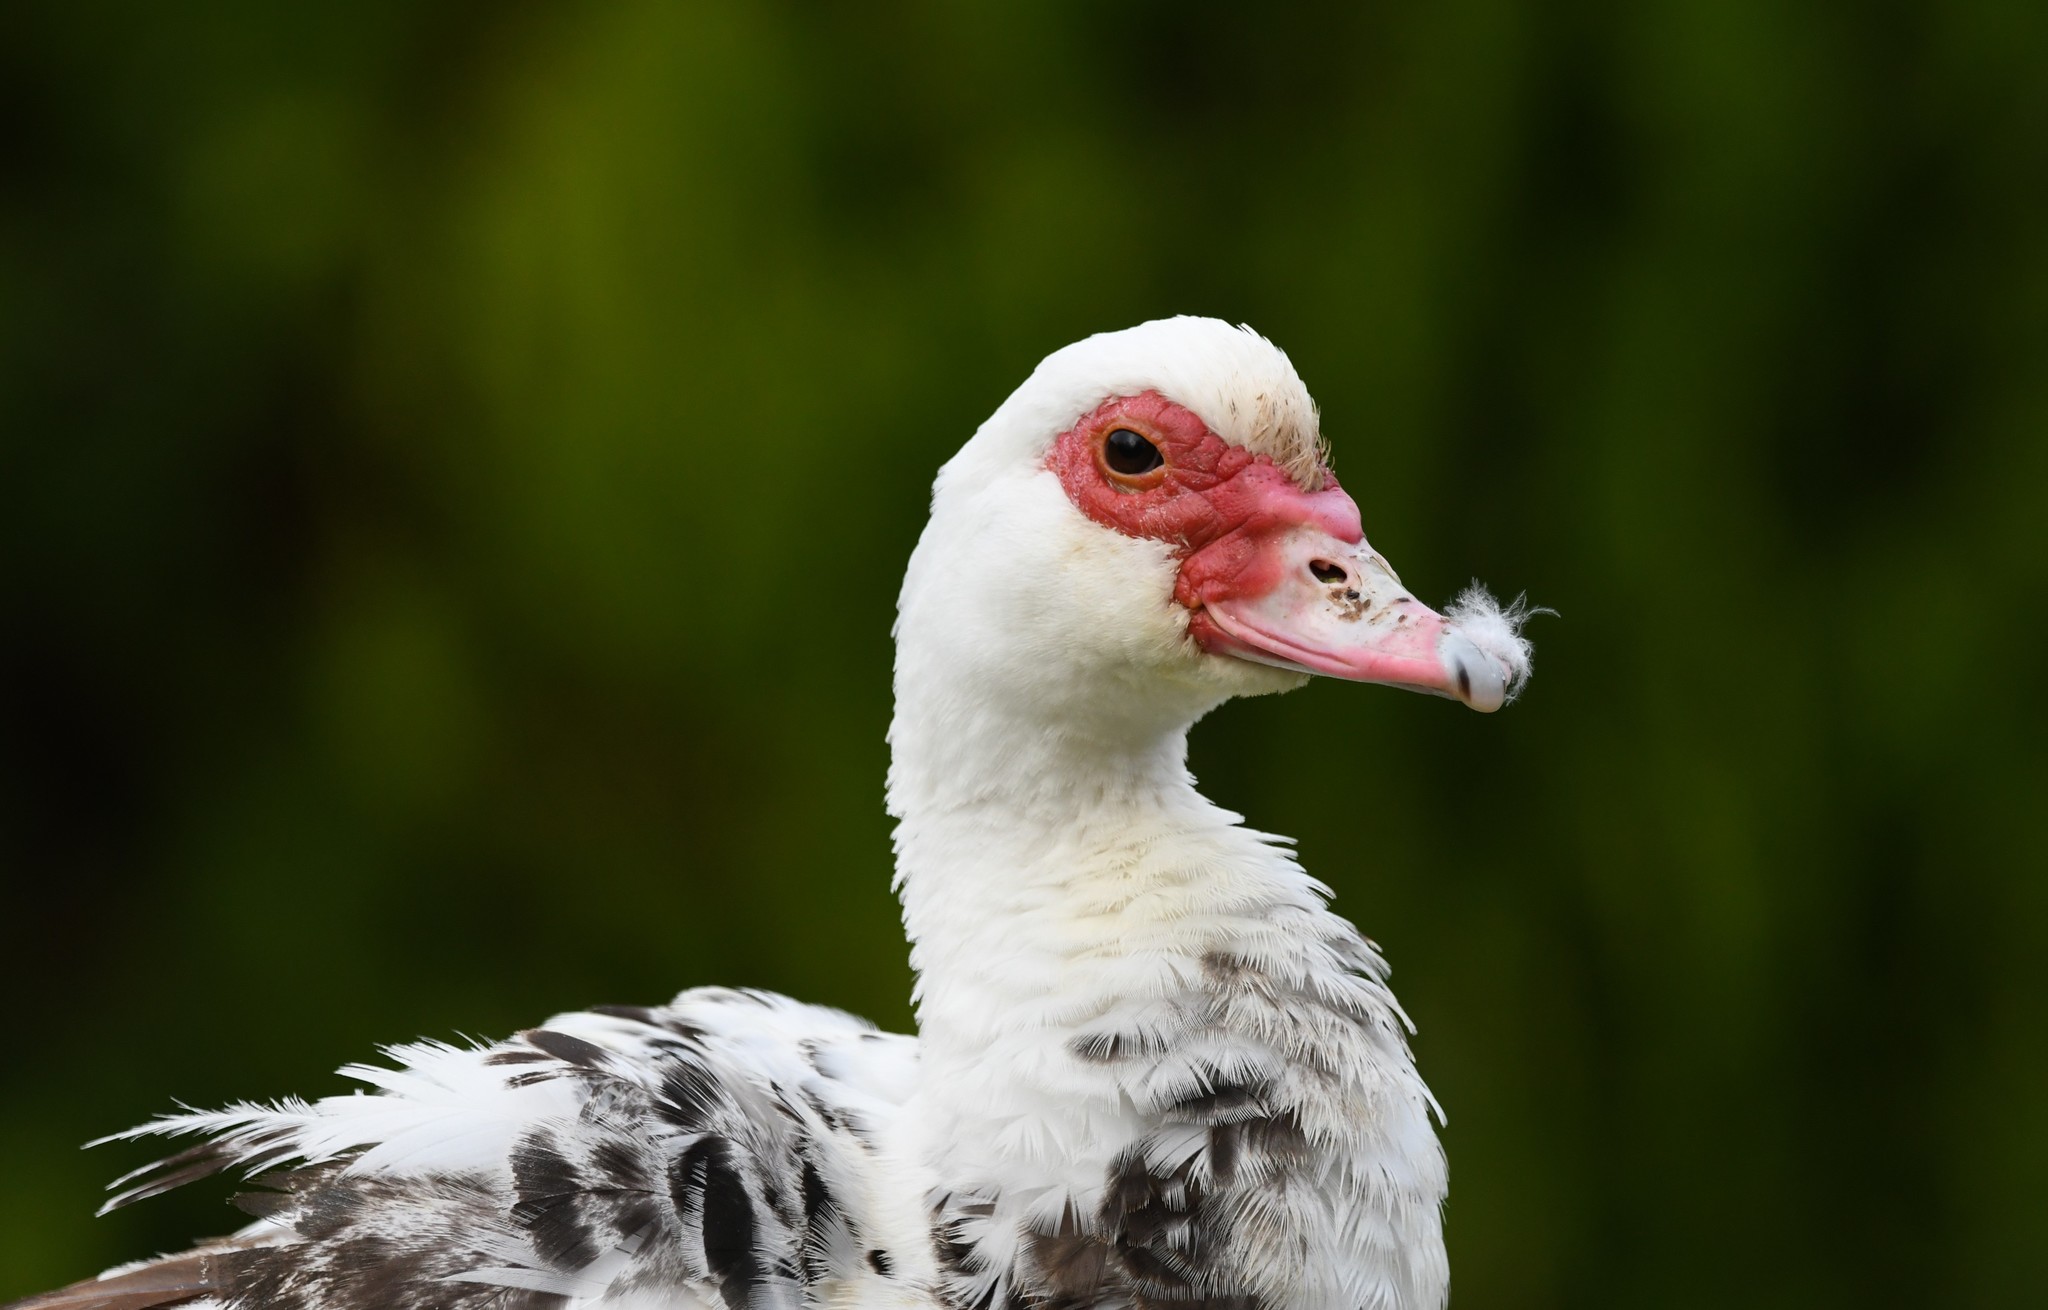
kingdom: Animalia
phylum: Chordata
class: Aves
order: Anseriformes
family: Anatidae
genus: Cairina
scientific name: Cairina moschata
